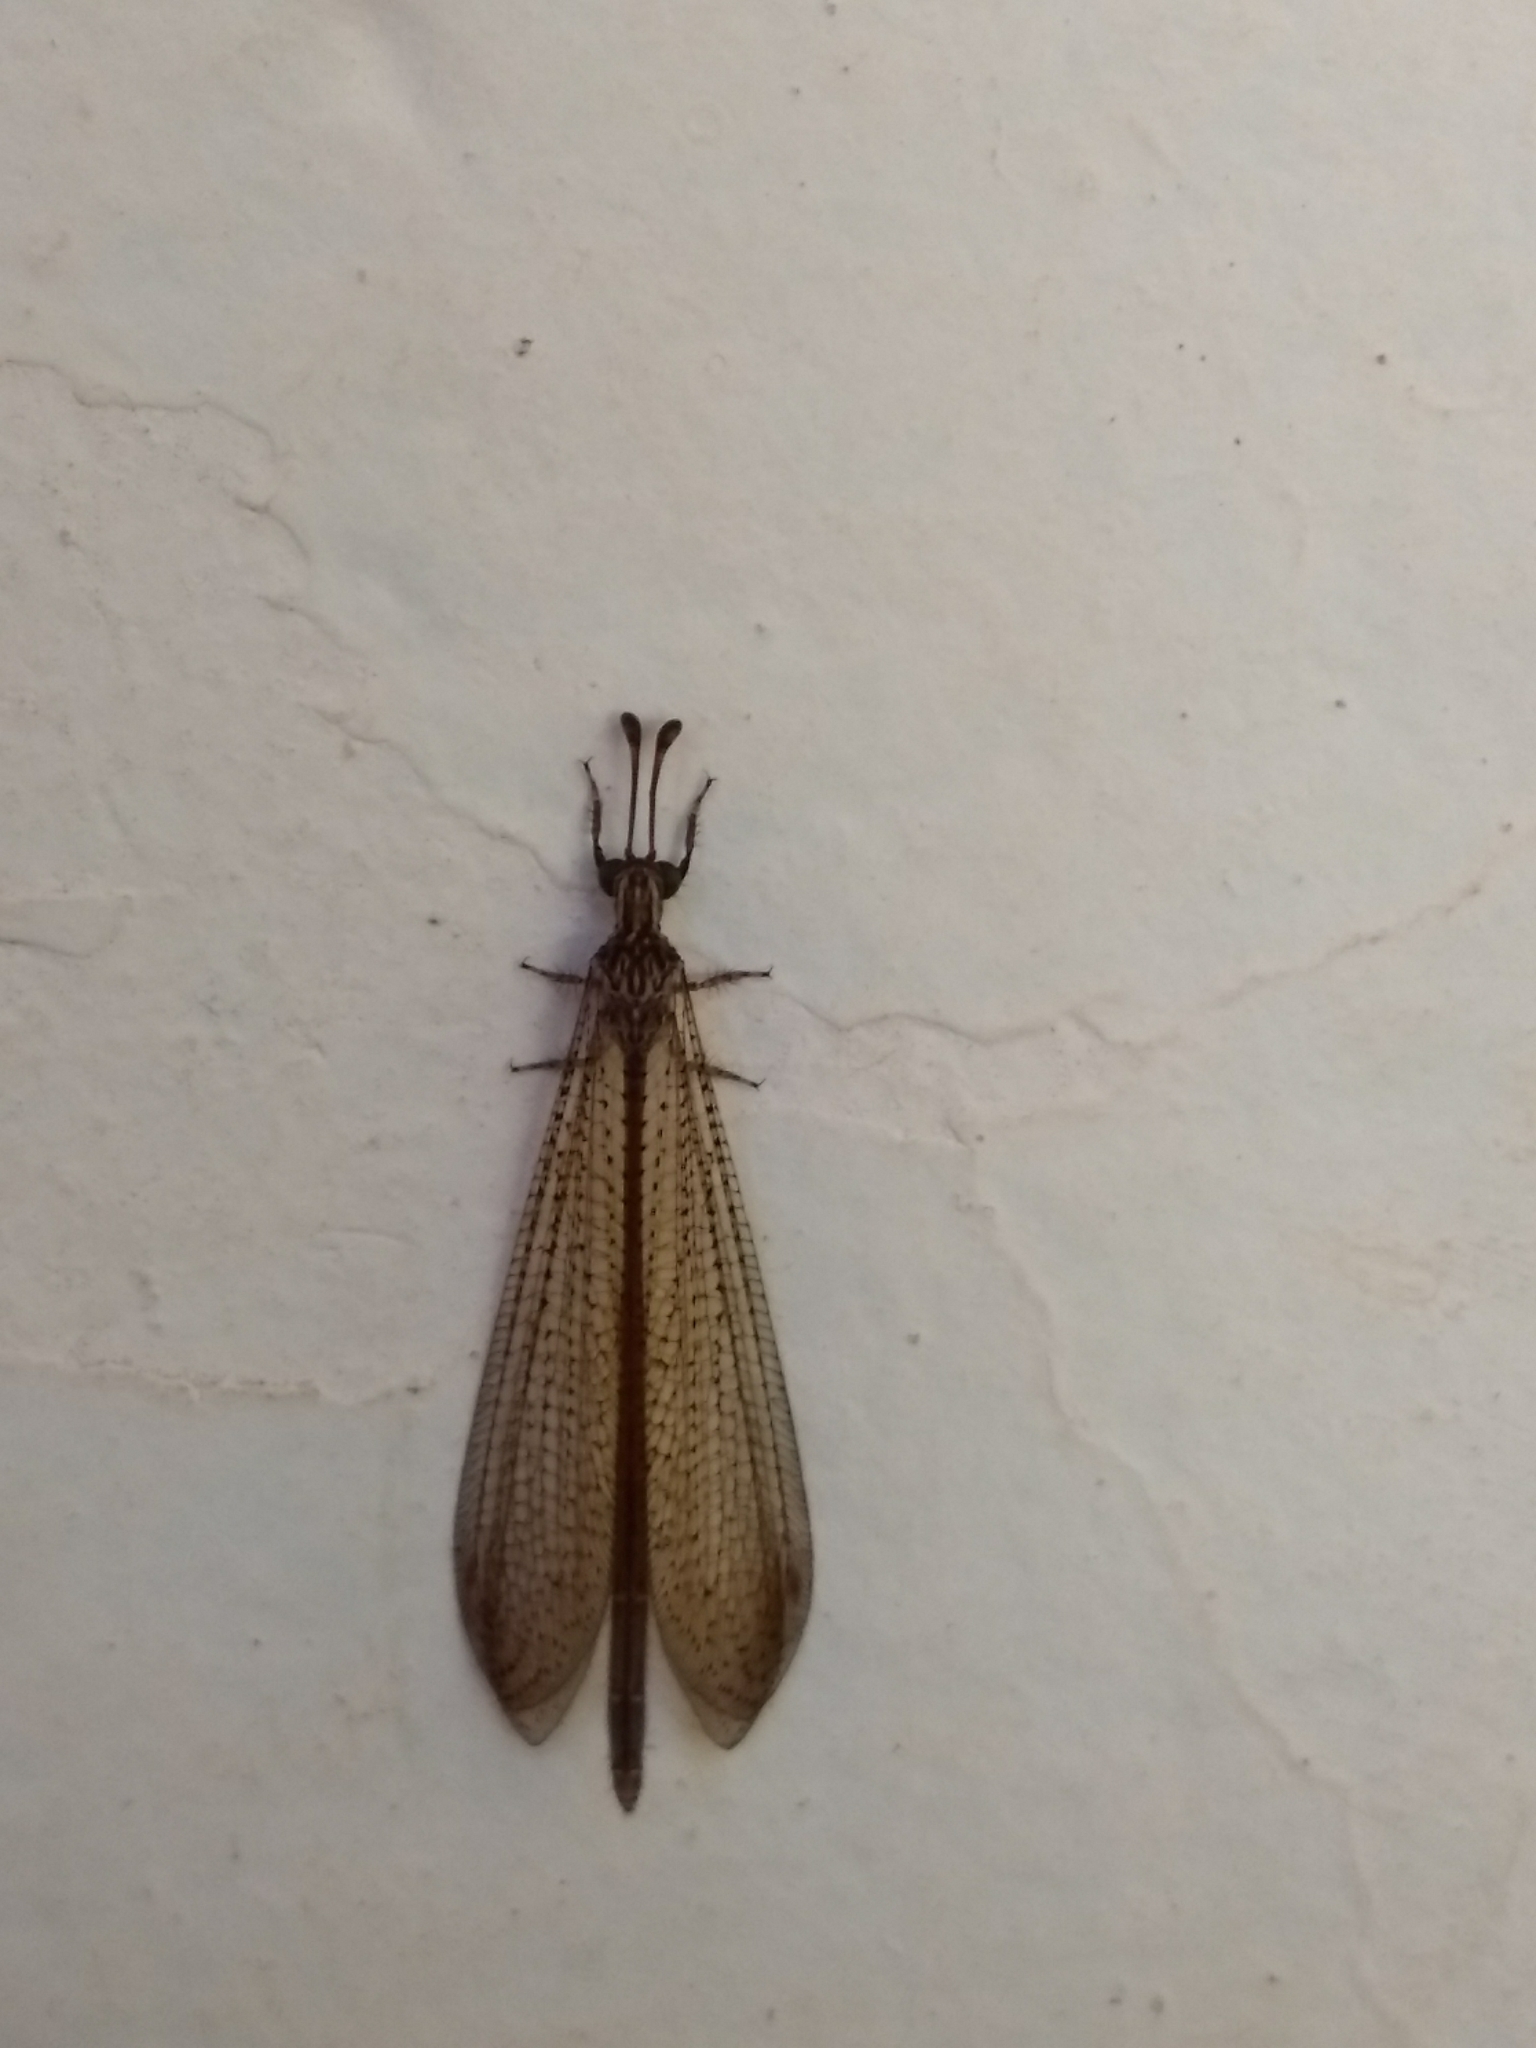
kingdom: Animalia
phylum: Arthropoda
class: Insecta
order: Neuroptera
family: Myrmeleontidae
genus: Argentoleon
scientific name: Argentoleon irrigatus
